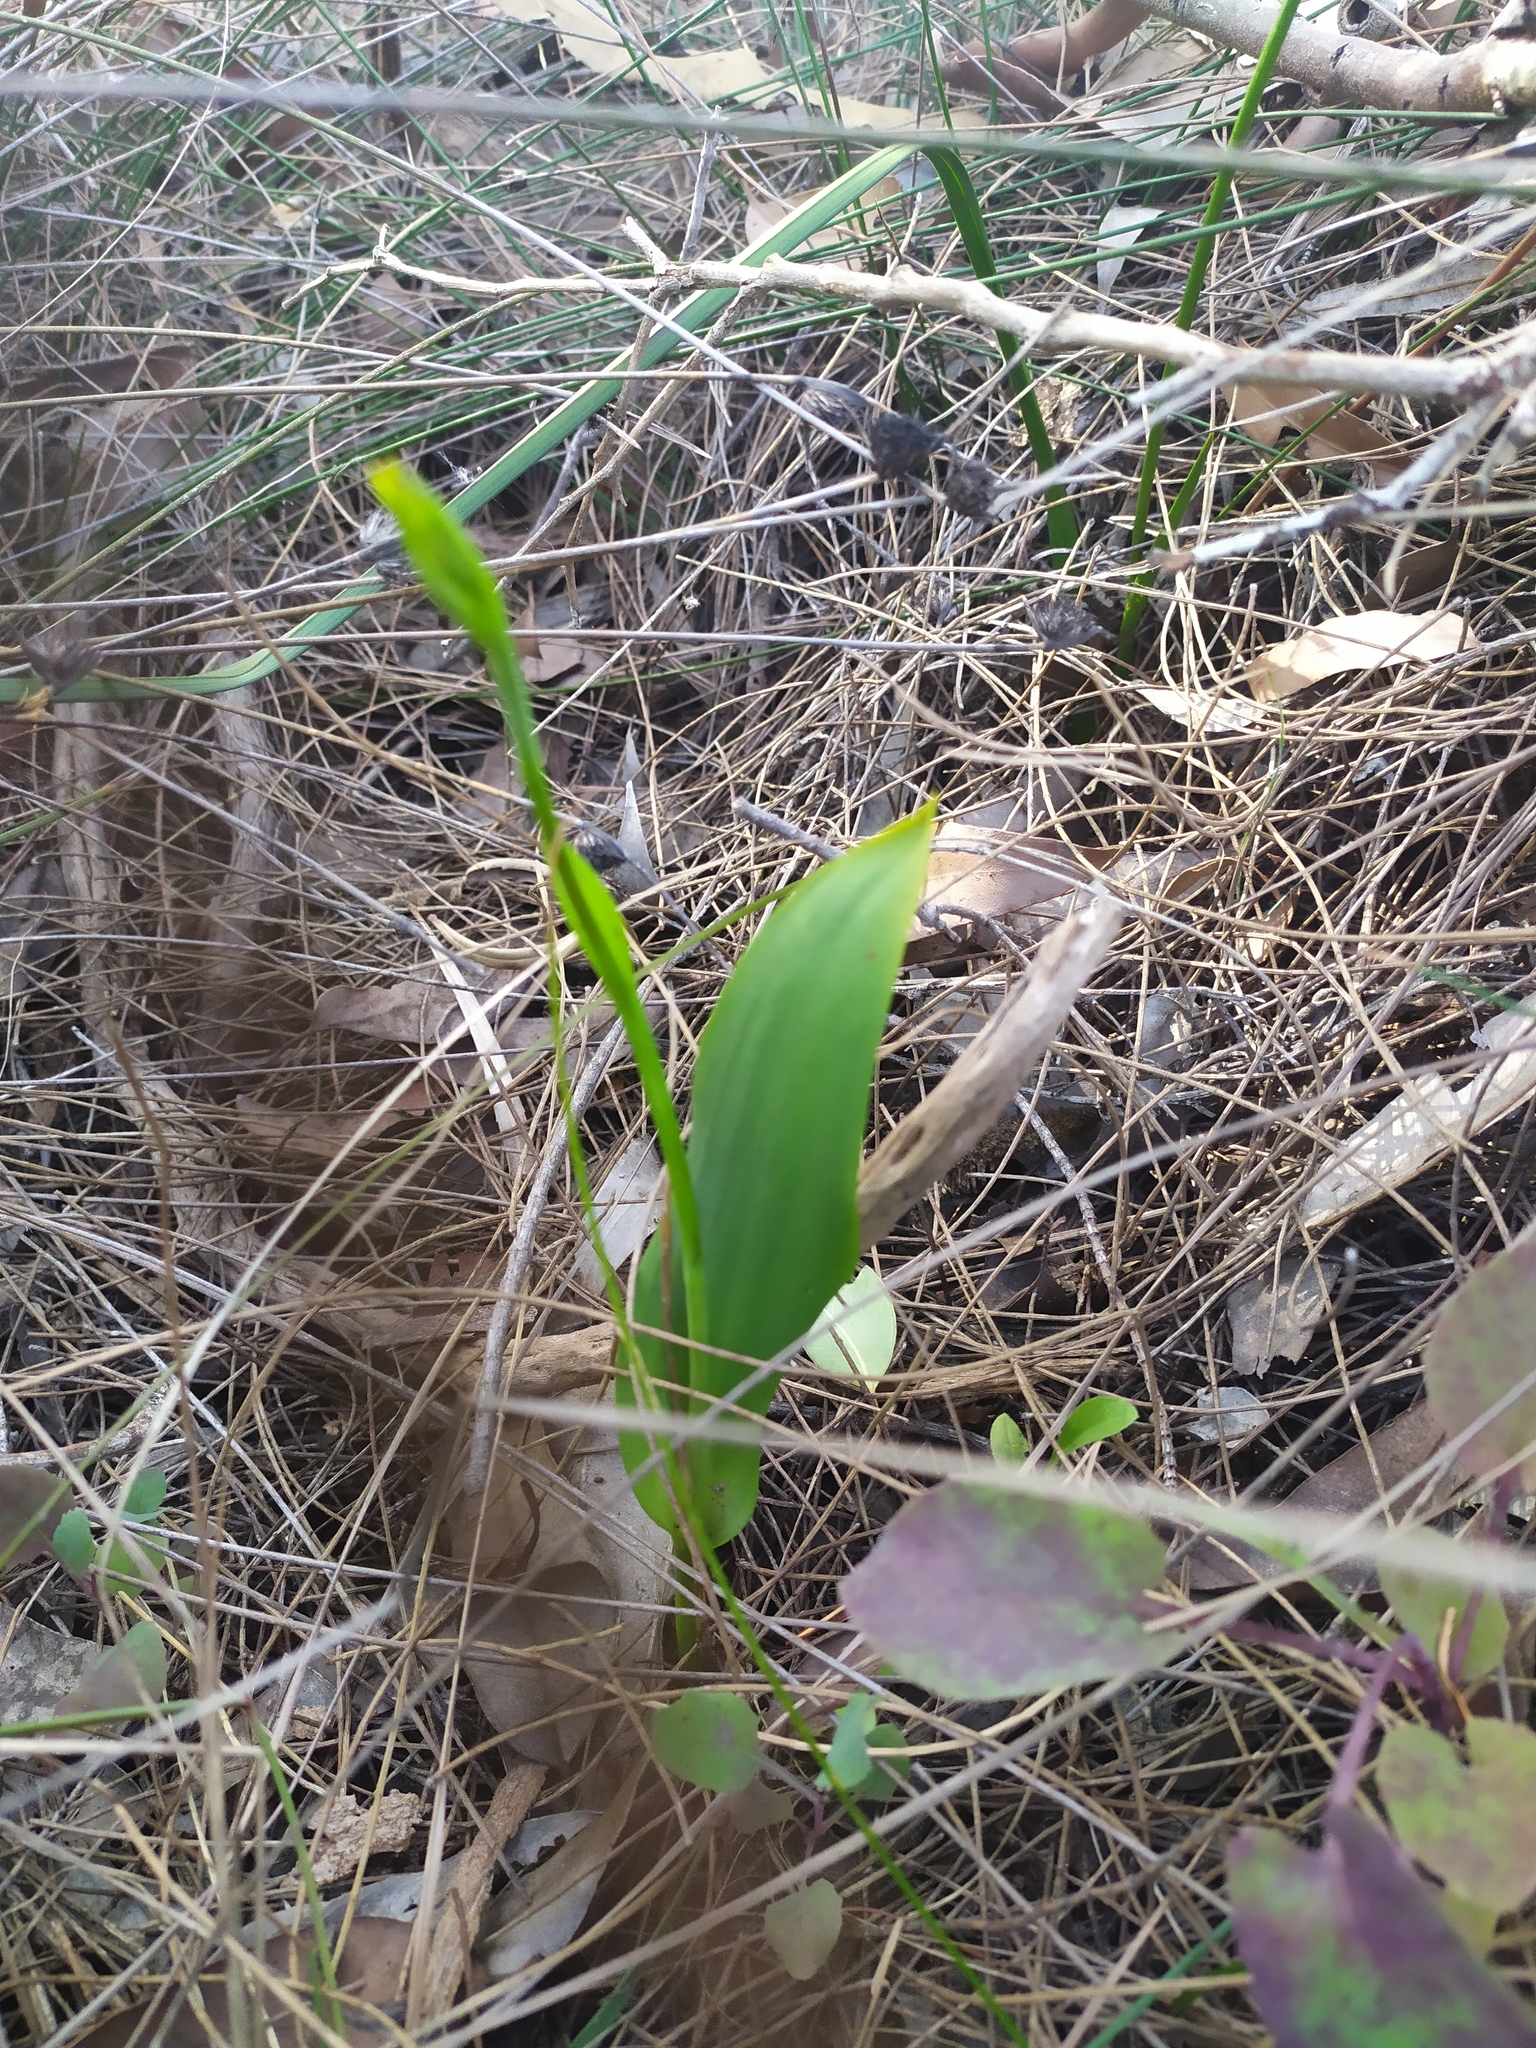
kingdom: Plantae
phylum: Tracheophyta
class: Liliopsida
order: Asparagales
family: Orchidaceae
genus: Thelymitra
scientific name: Thelymitra benthamiana
